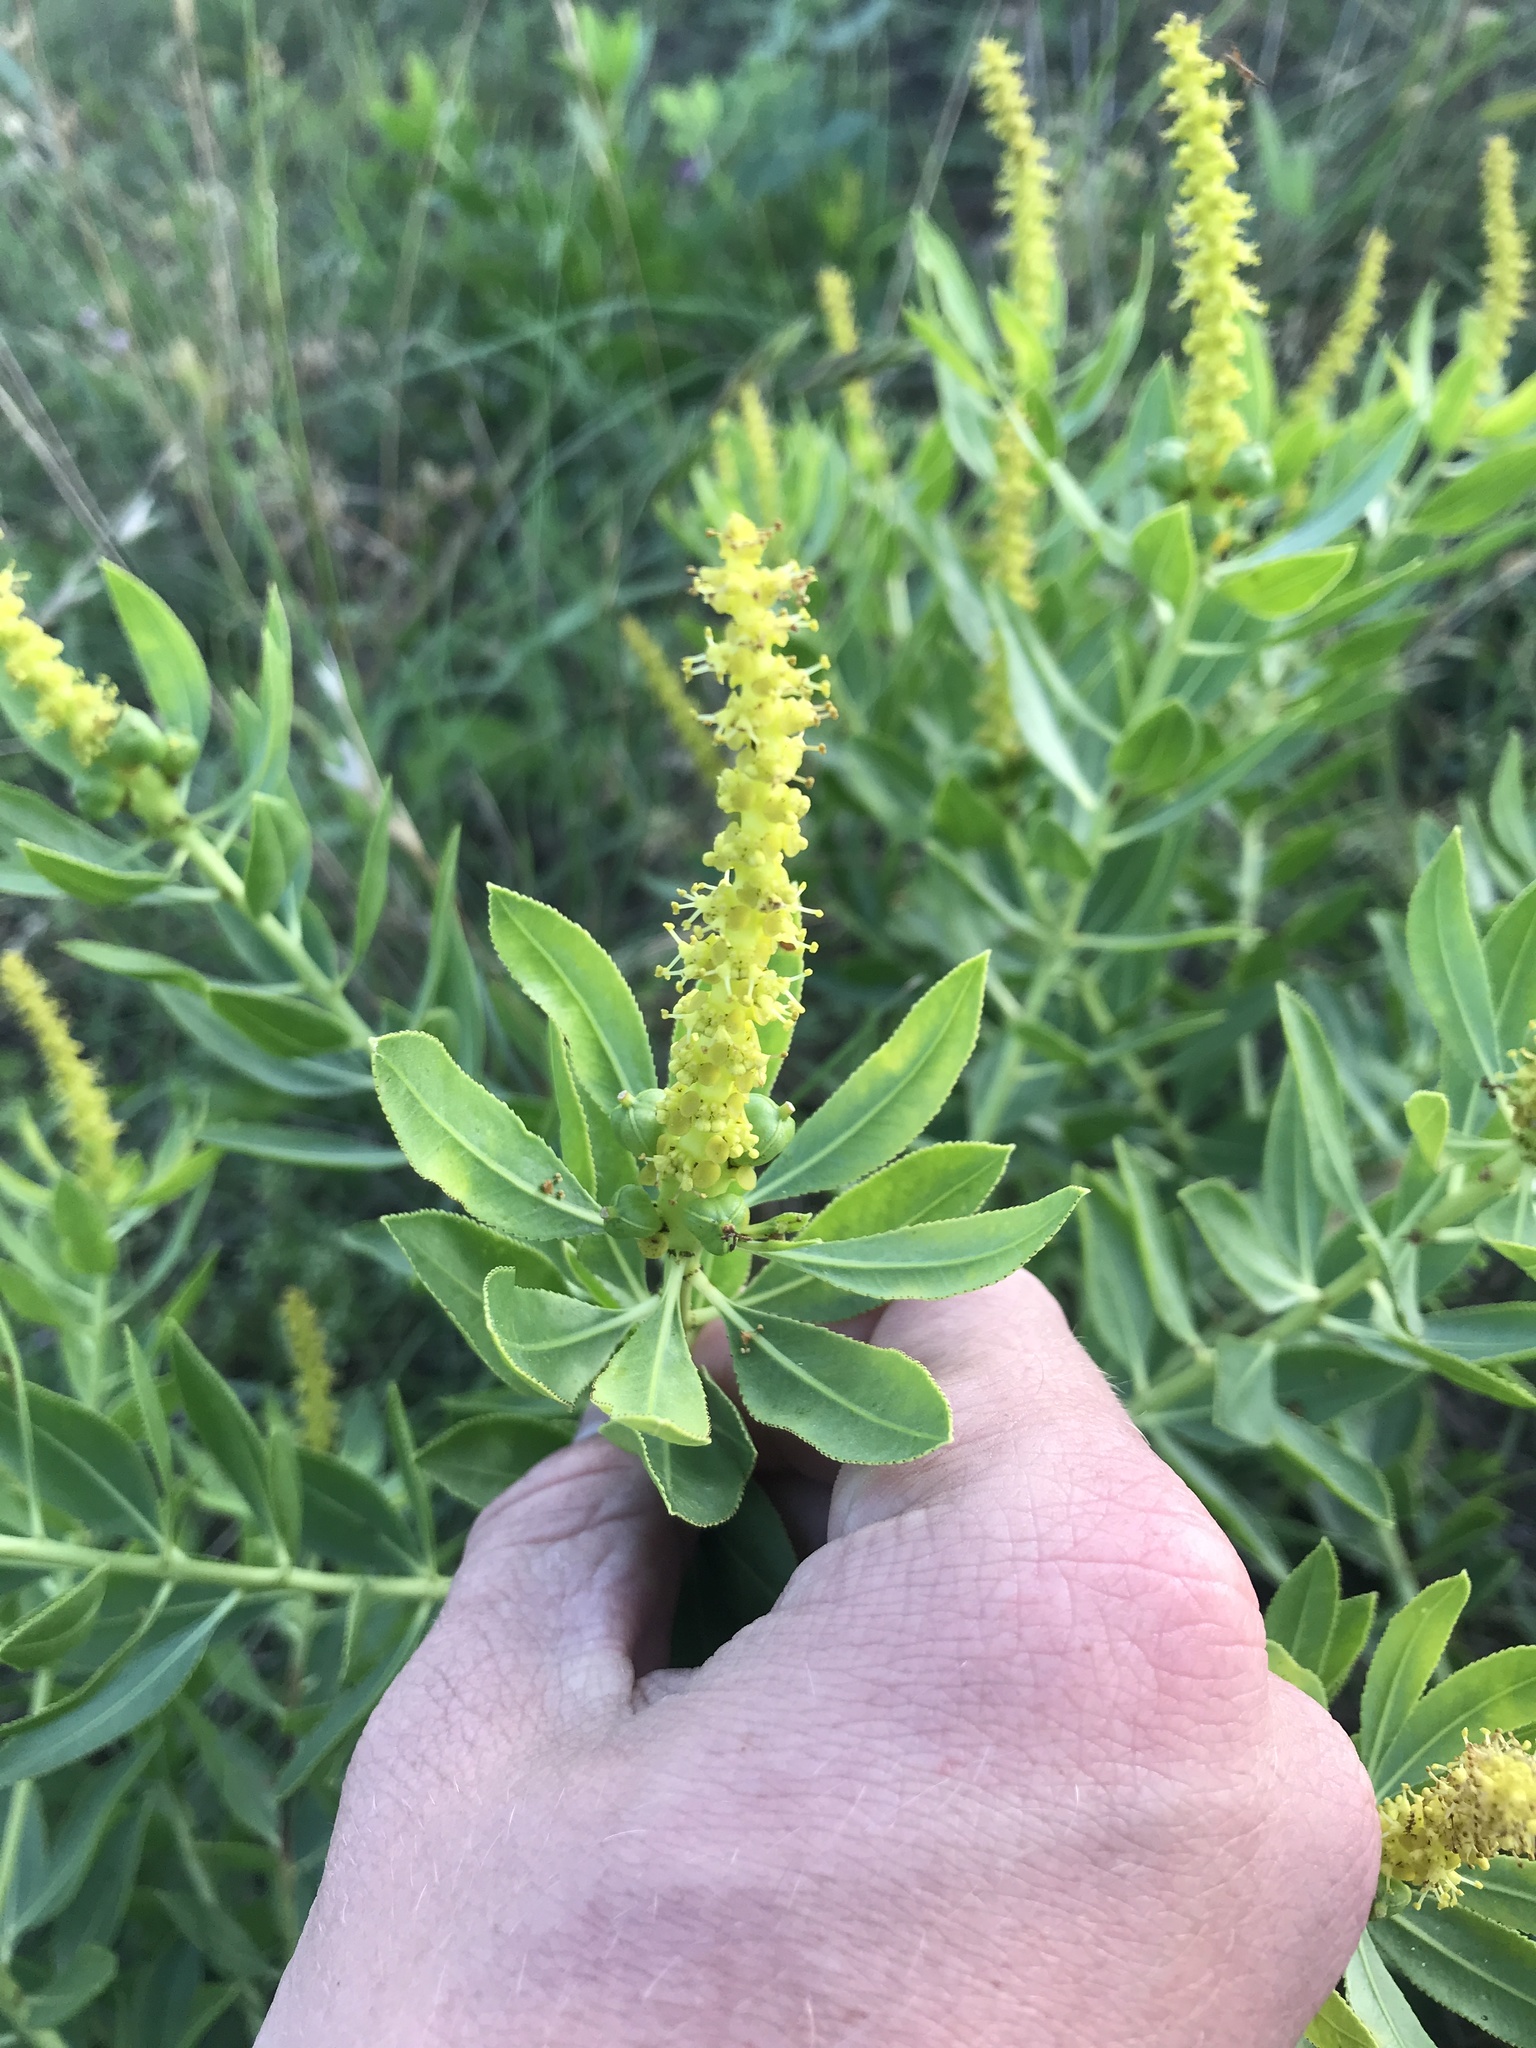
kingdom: Plantae
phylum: Tracheophyta
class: Magnoliopsida
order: Malpighiales
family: Euphorbiaceae
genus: Stillingia
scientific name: Stillingia sylvatica
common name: Queen's-delight
